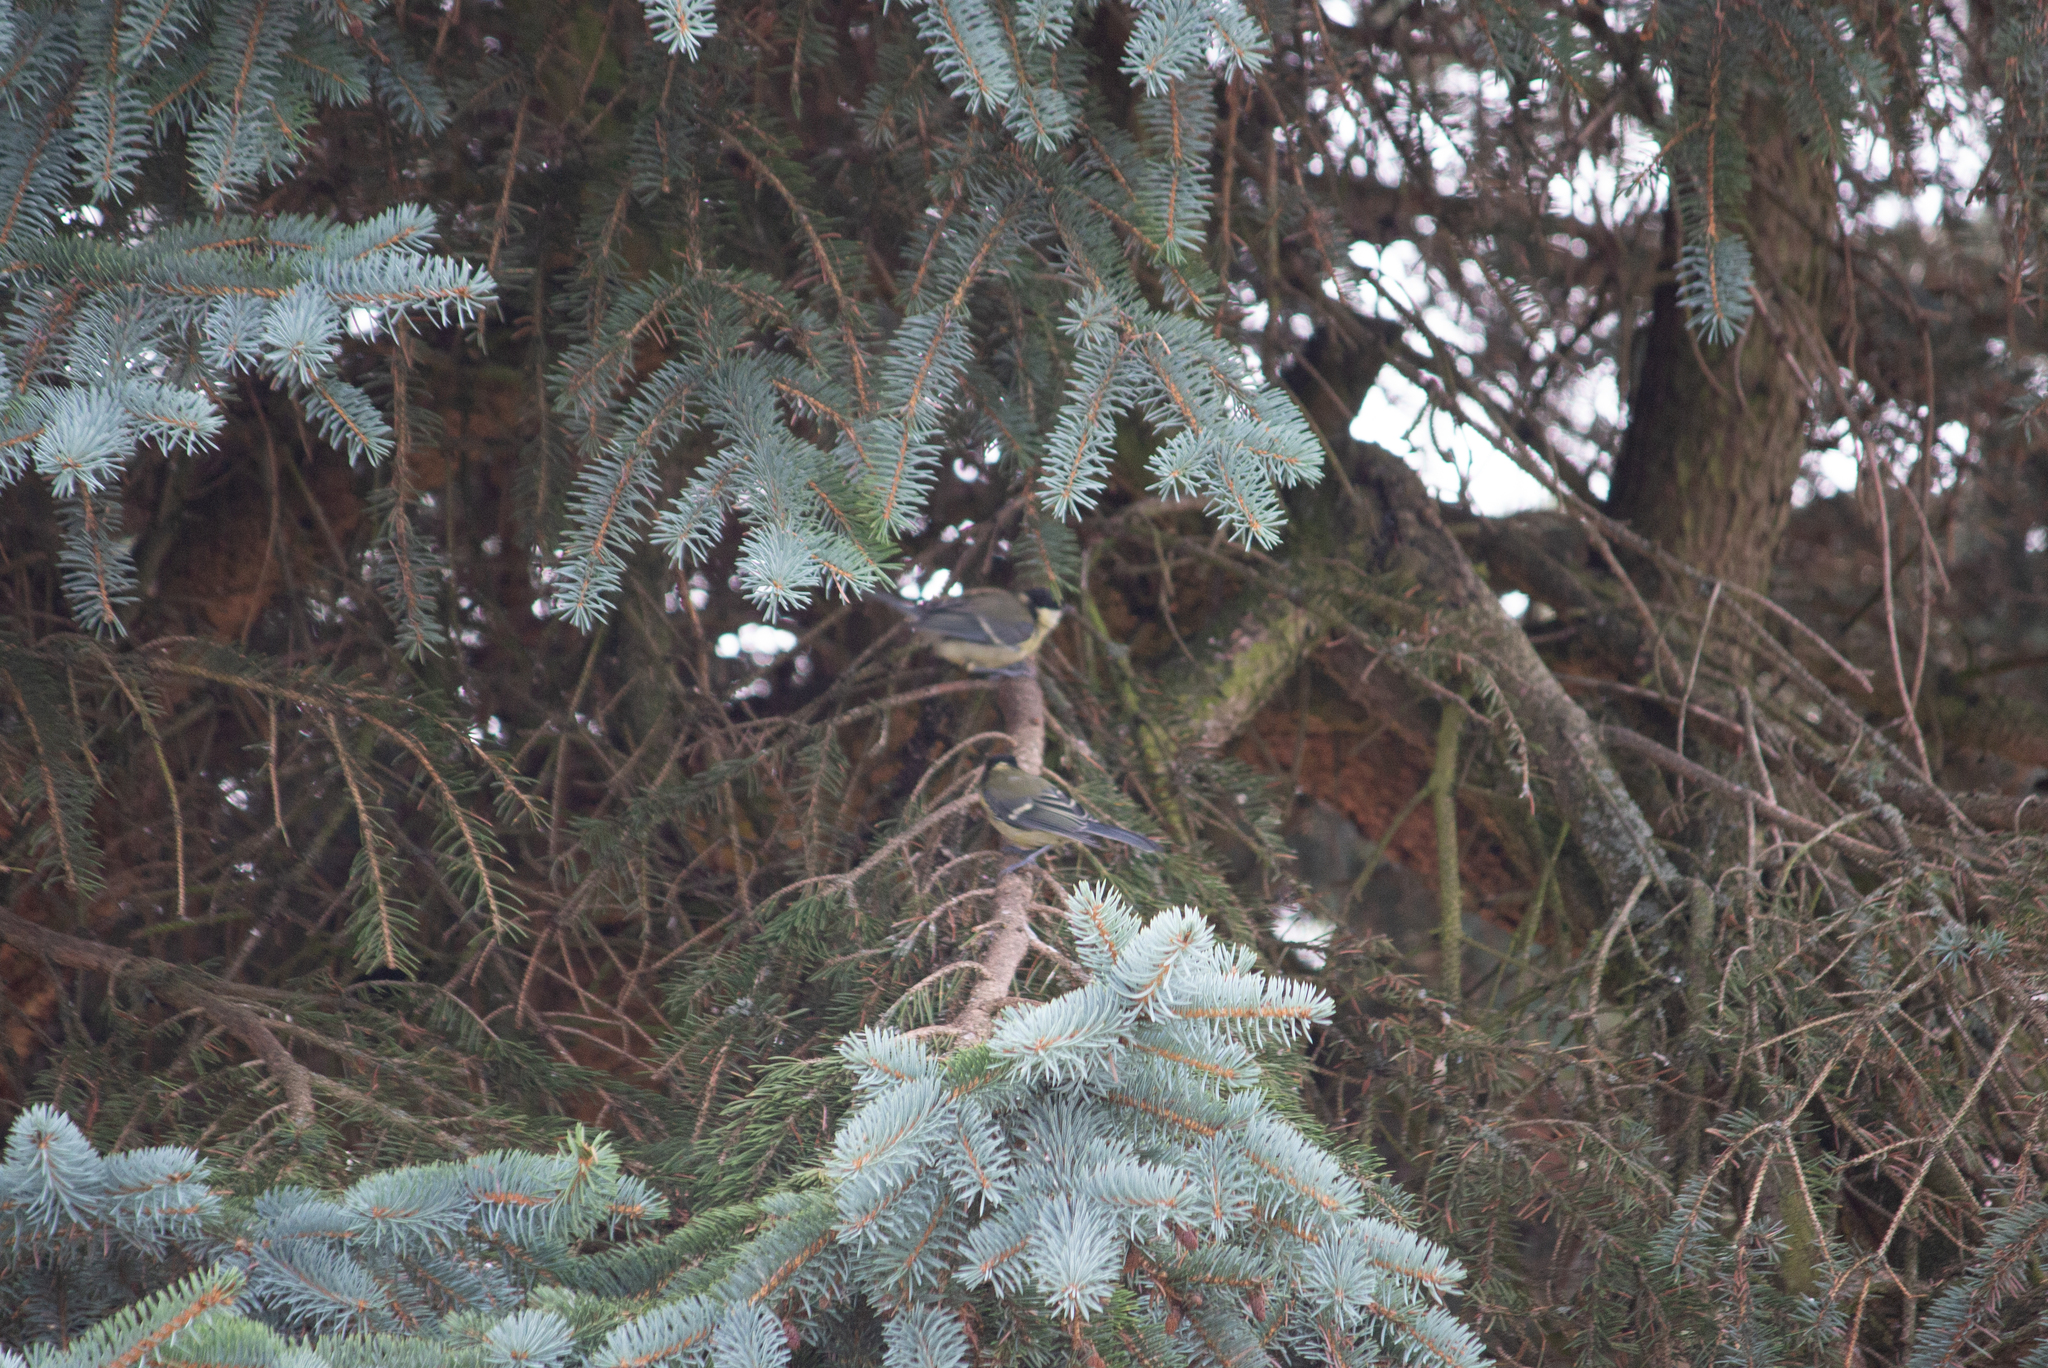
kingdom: Animalia
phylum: Chordata
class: Aves
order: Passeriformes
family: Paridae
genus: Parus
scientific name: Parus major
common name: Great tit
